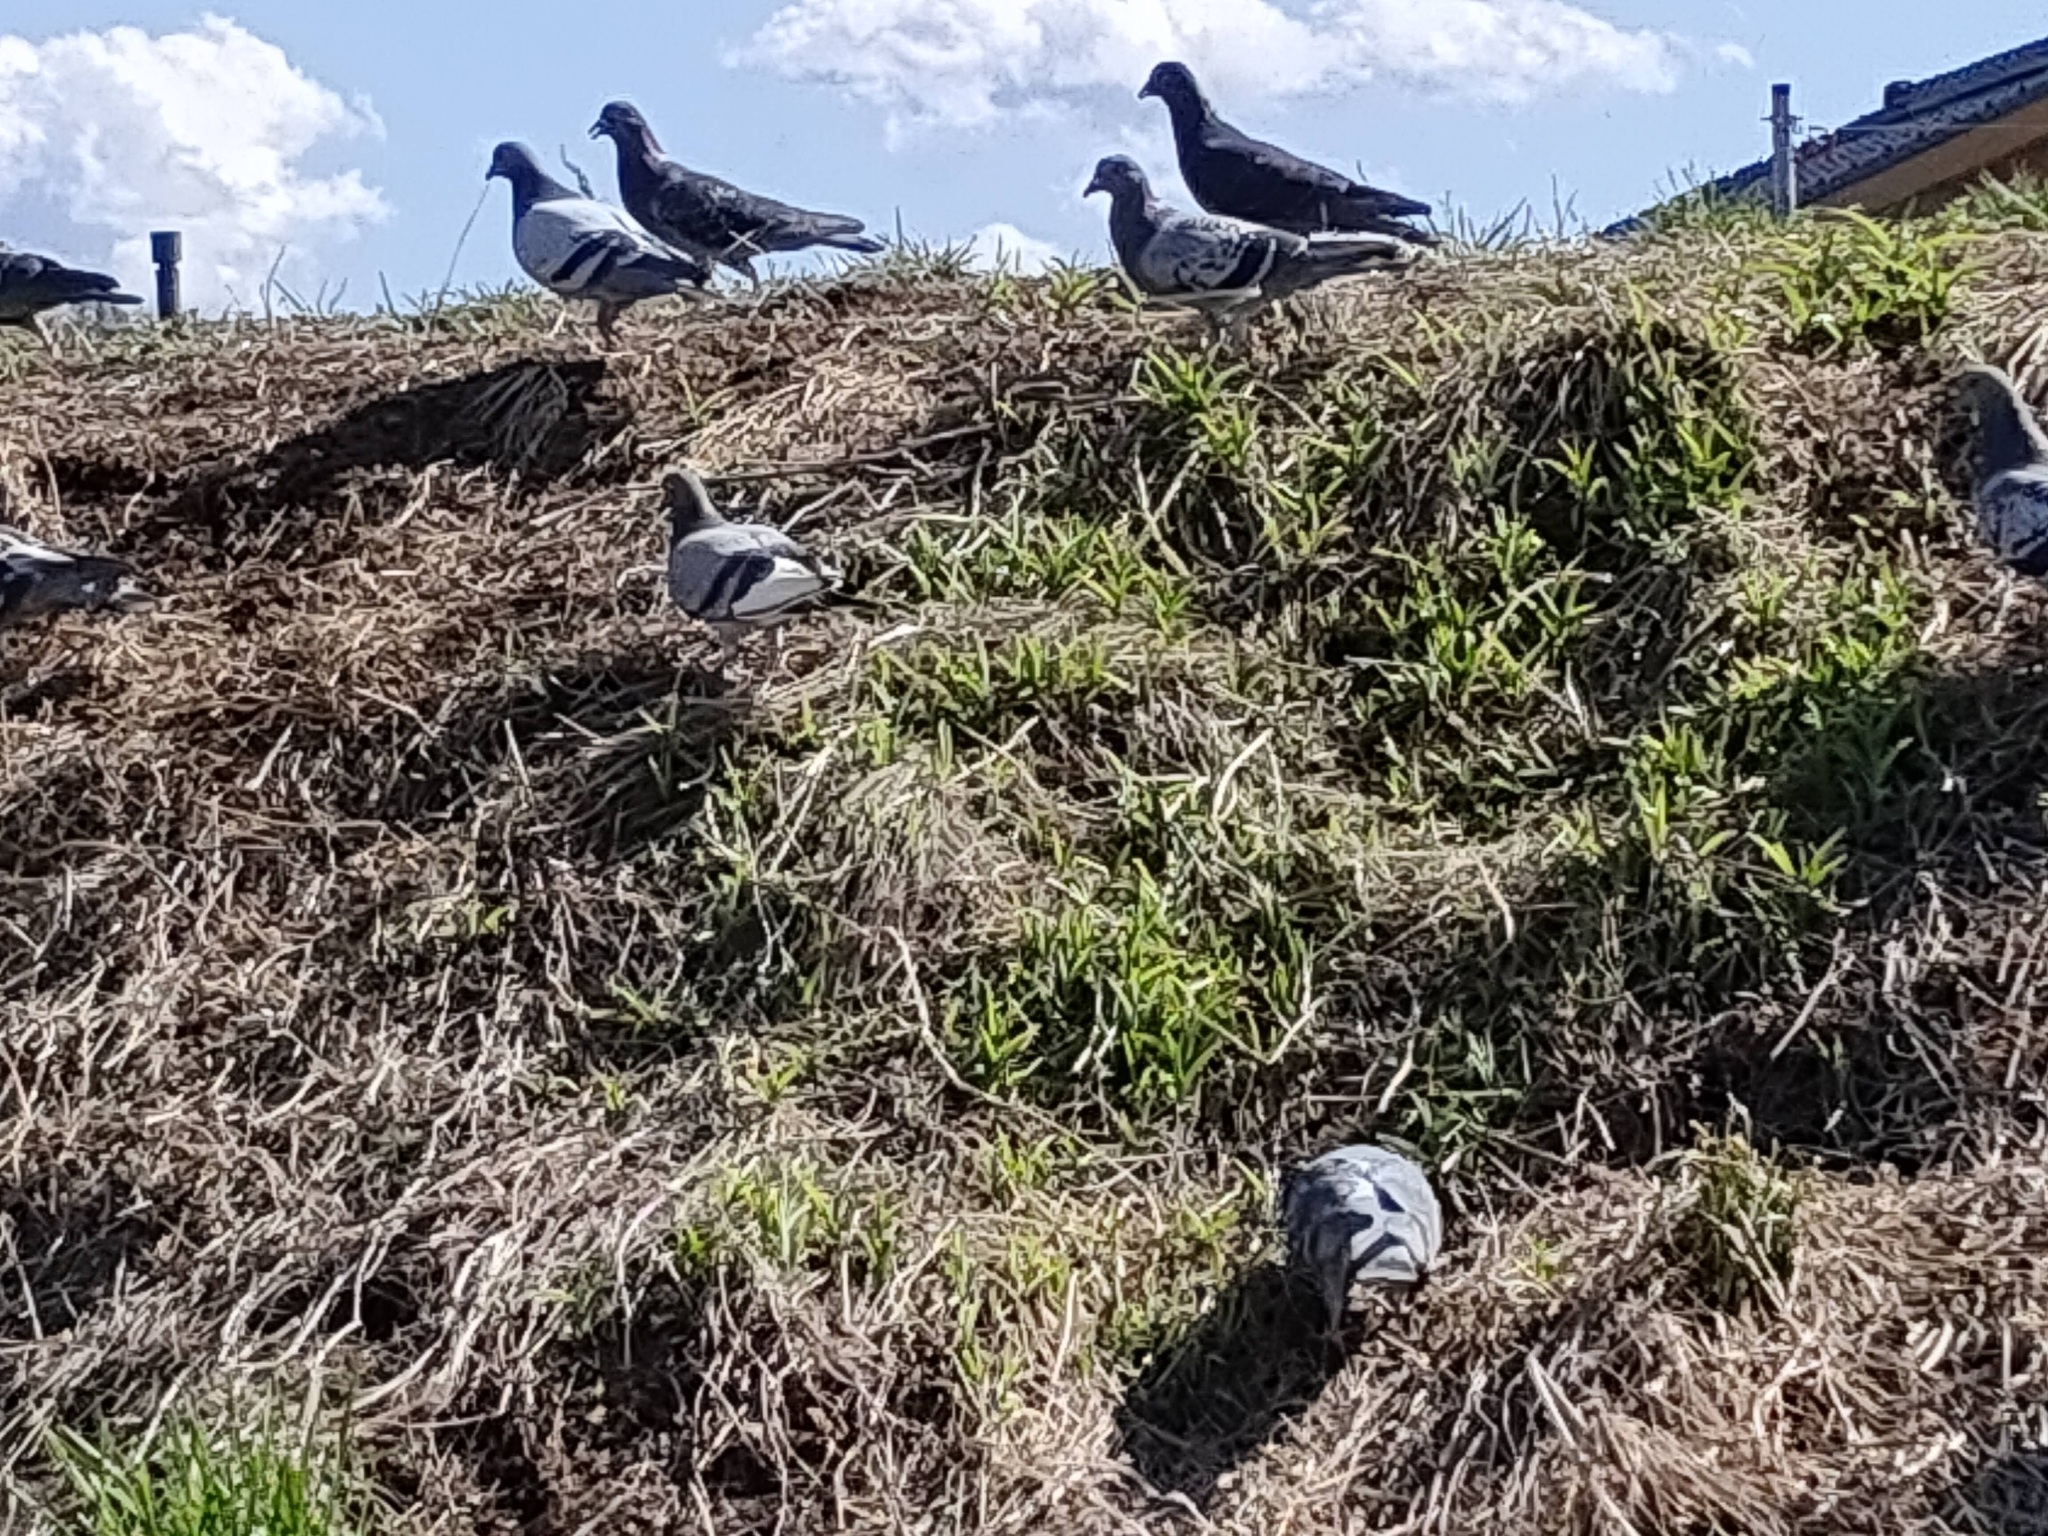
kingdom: Animalia
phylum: Chordata
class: Aves
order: Columbiformes
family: Columbidae
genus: Columba
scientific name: Columba livia
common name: Rock pigeon
